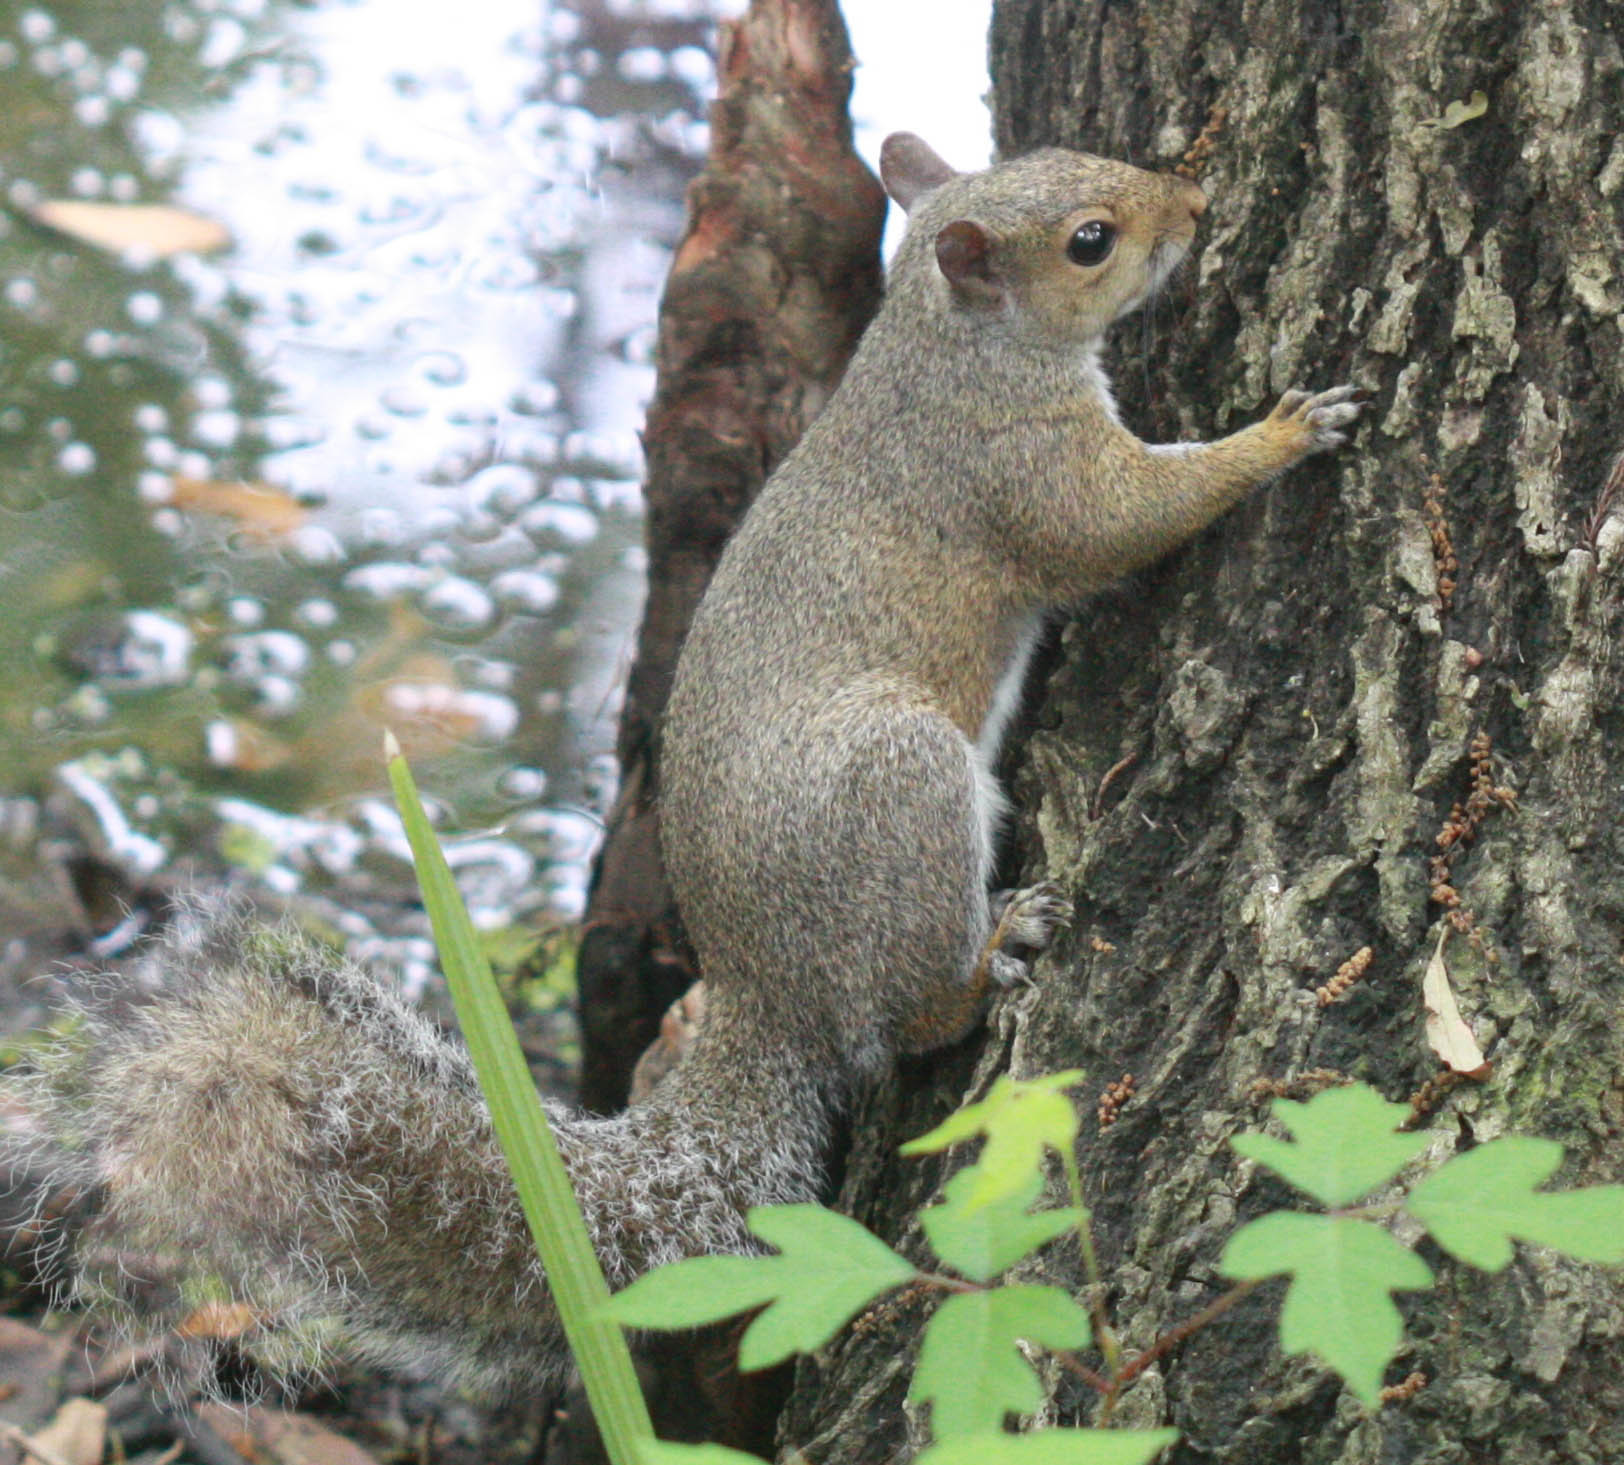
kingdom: Animalia
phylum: Chordata
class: Mammalia
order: Rodentia
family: Sciuridae
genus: Sciurus
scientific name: Sciurus carolinensis
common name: Eastern gray squirrel
